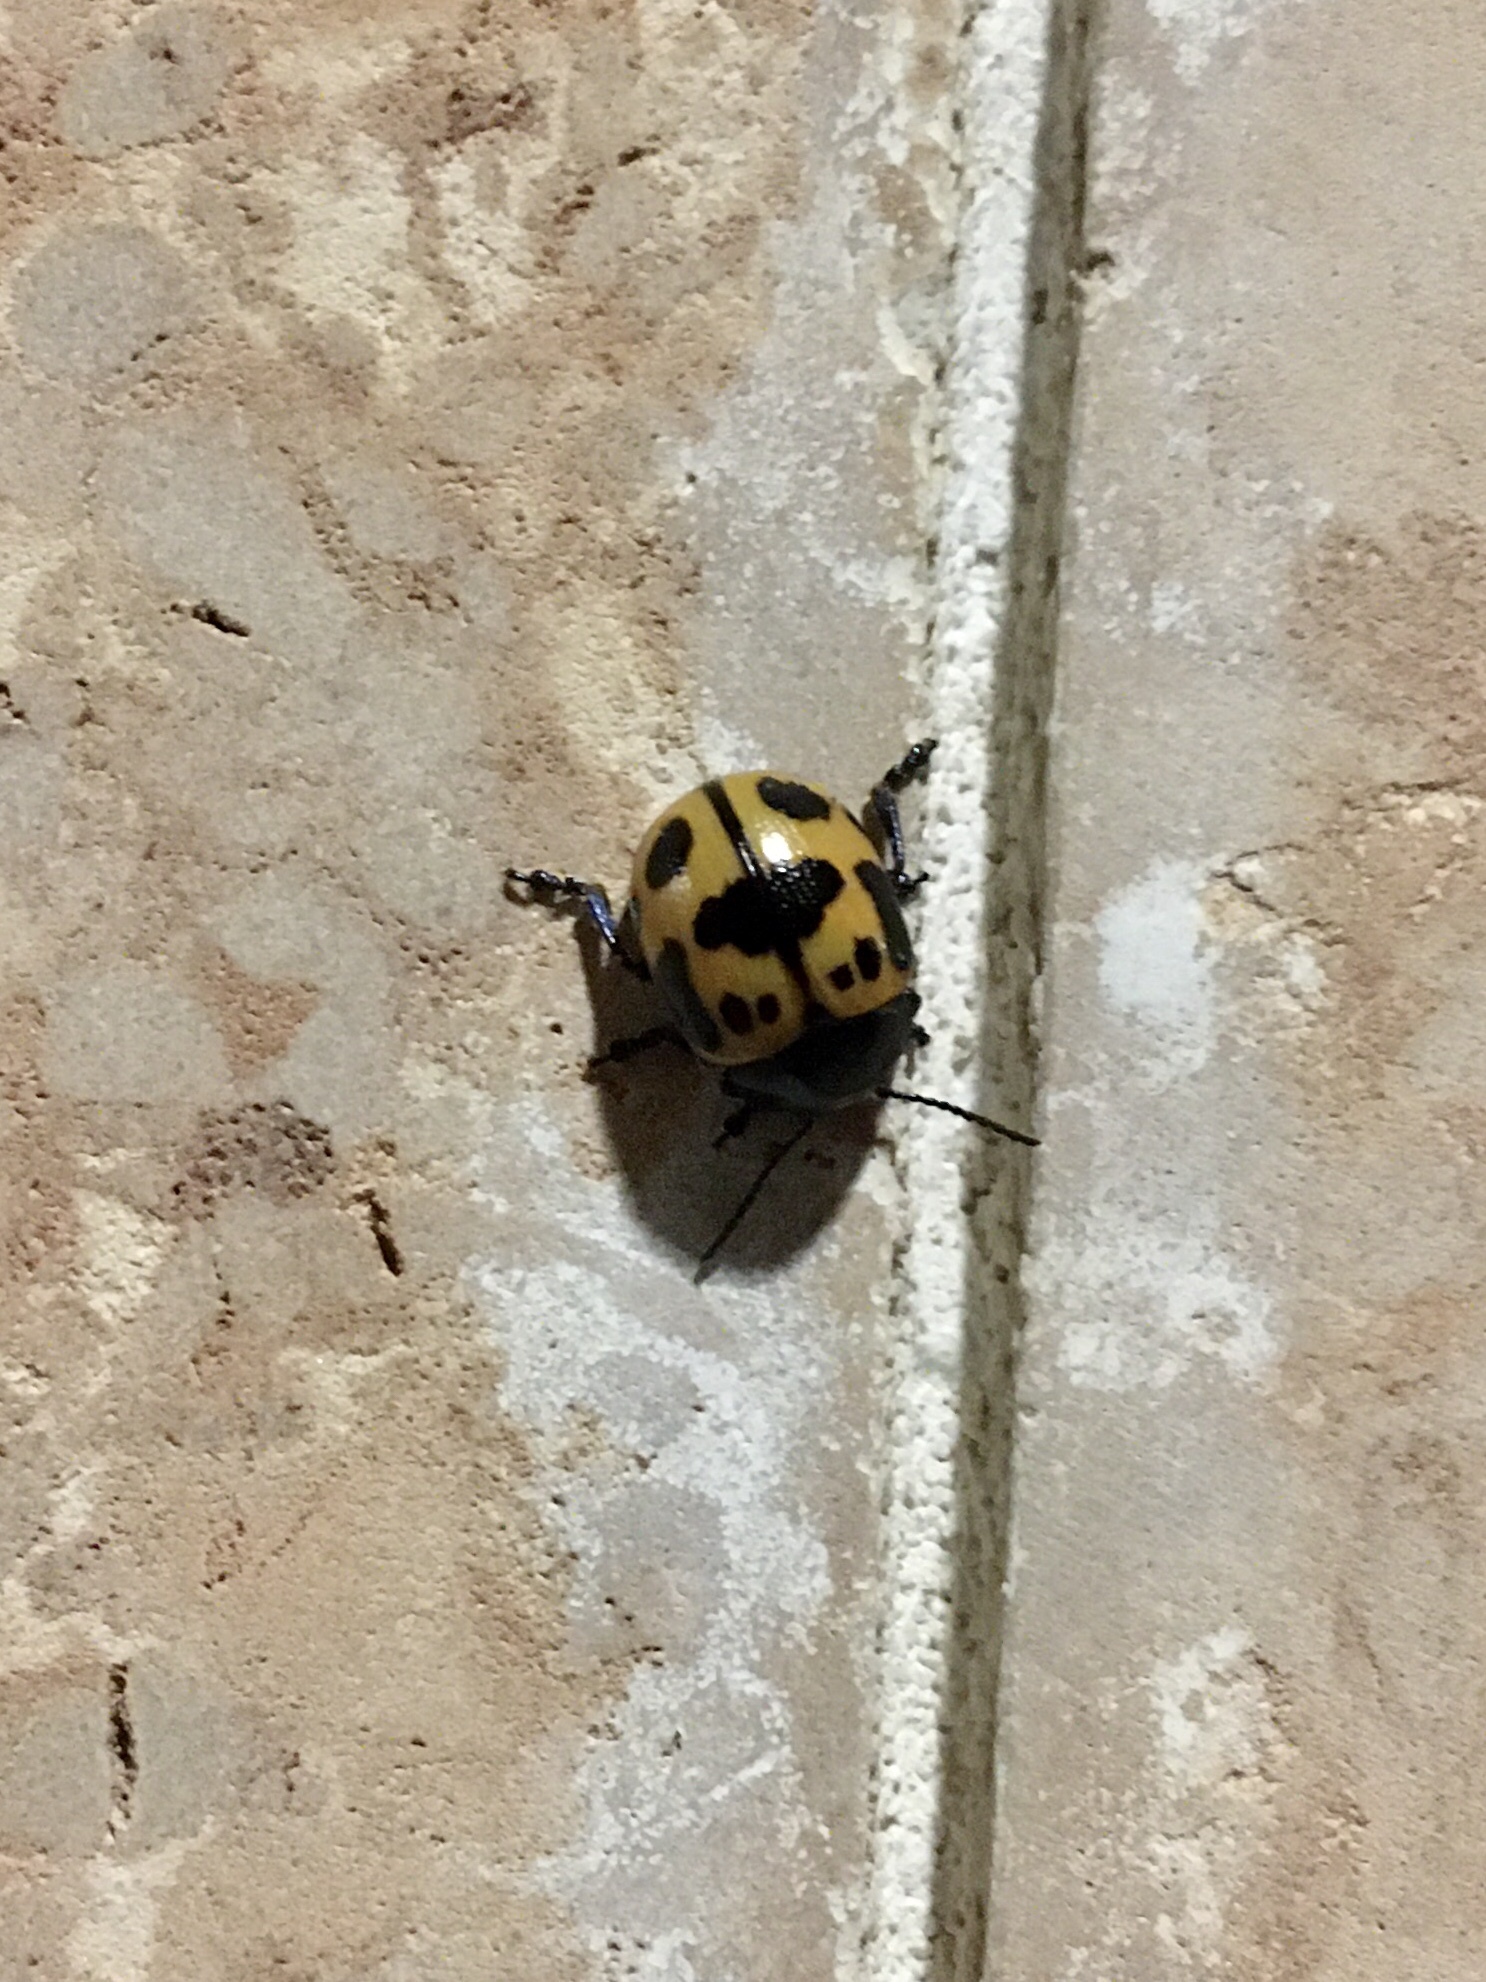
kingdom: Animalia
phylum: Arthropoda
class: Insecta
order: Coleoptera
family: Chrysomelidae
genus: Labidomera
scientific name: Labidomera clivicollis
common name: Swamp milkweed leaf beetle
